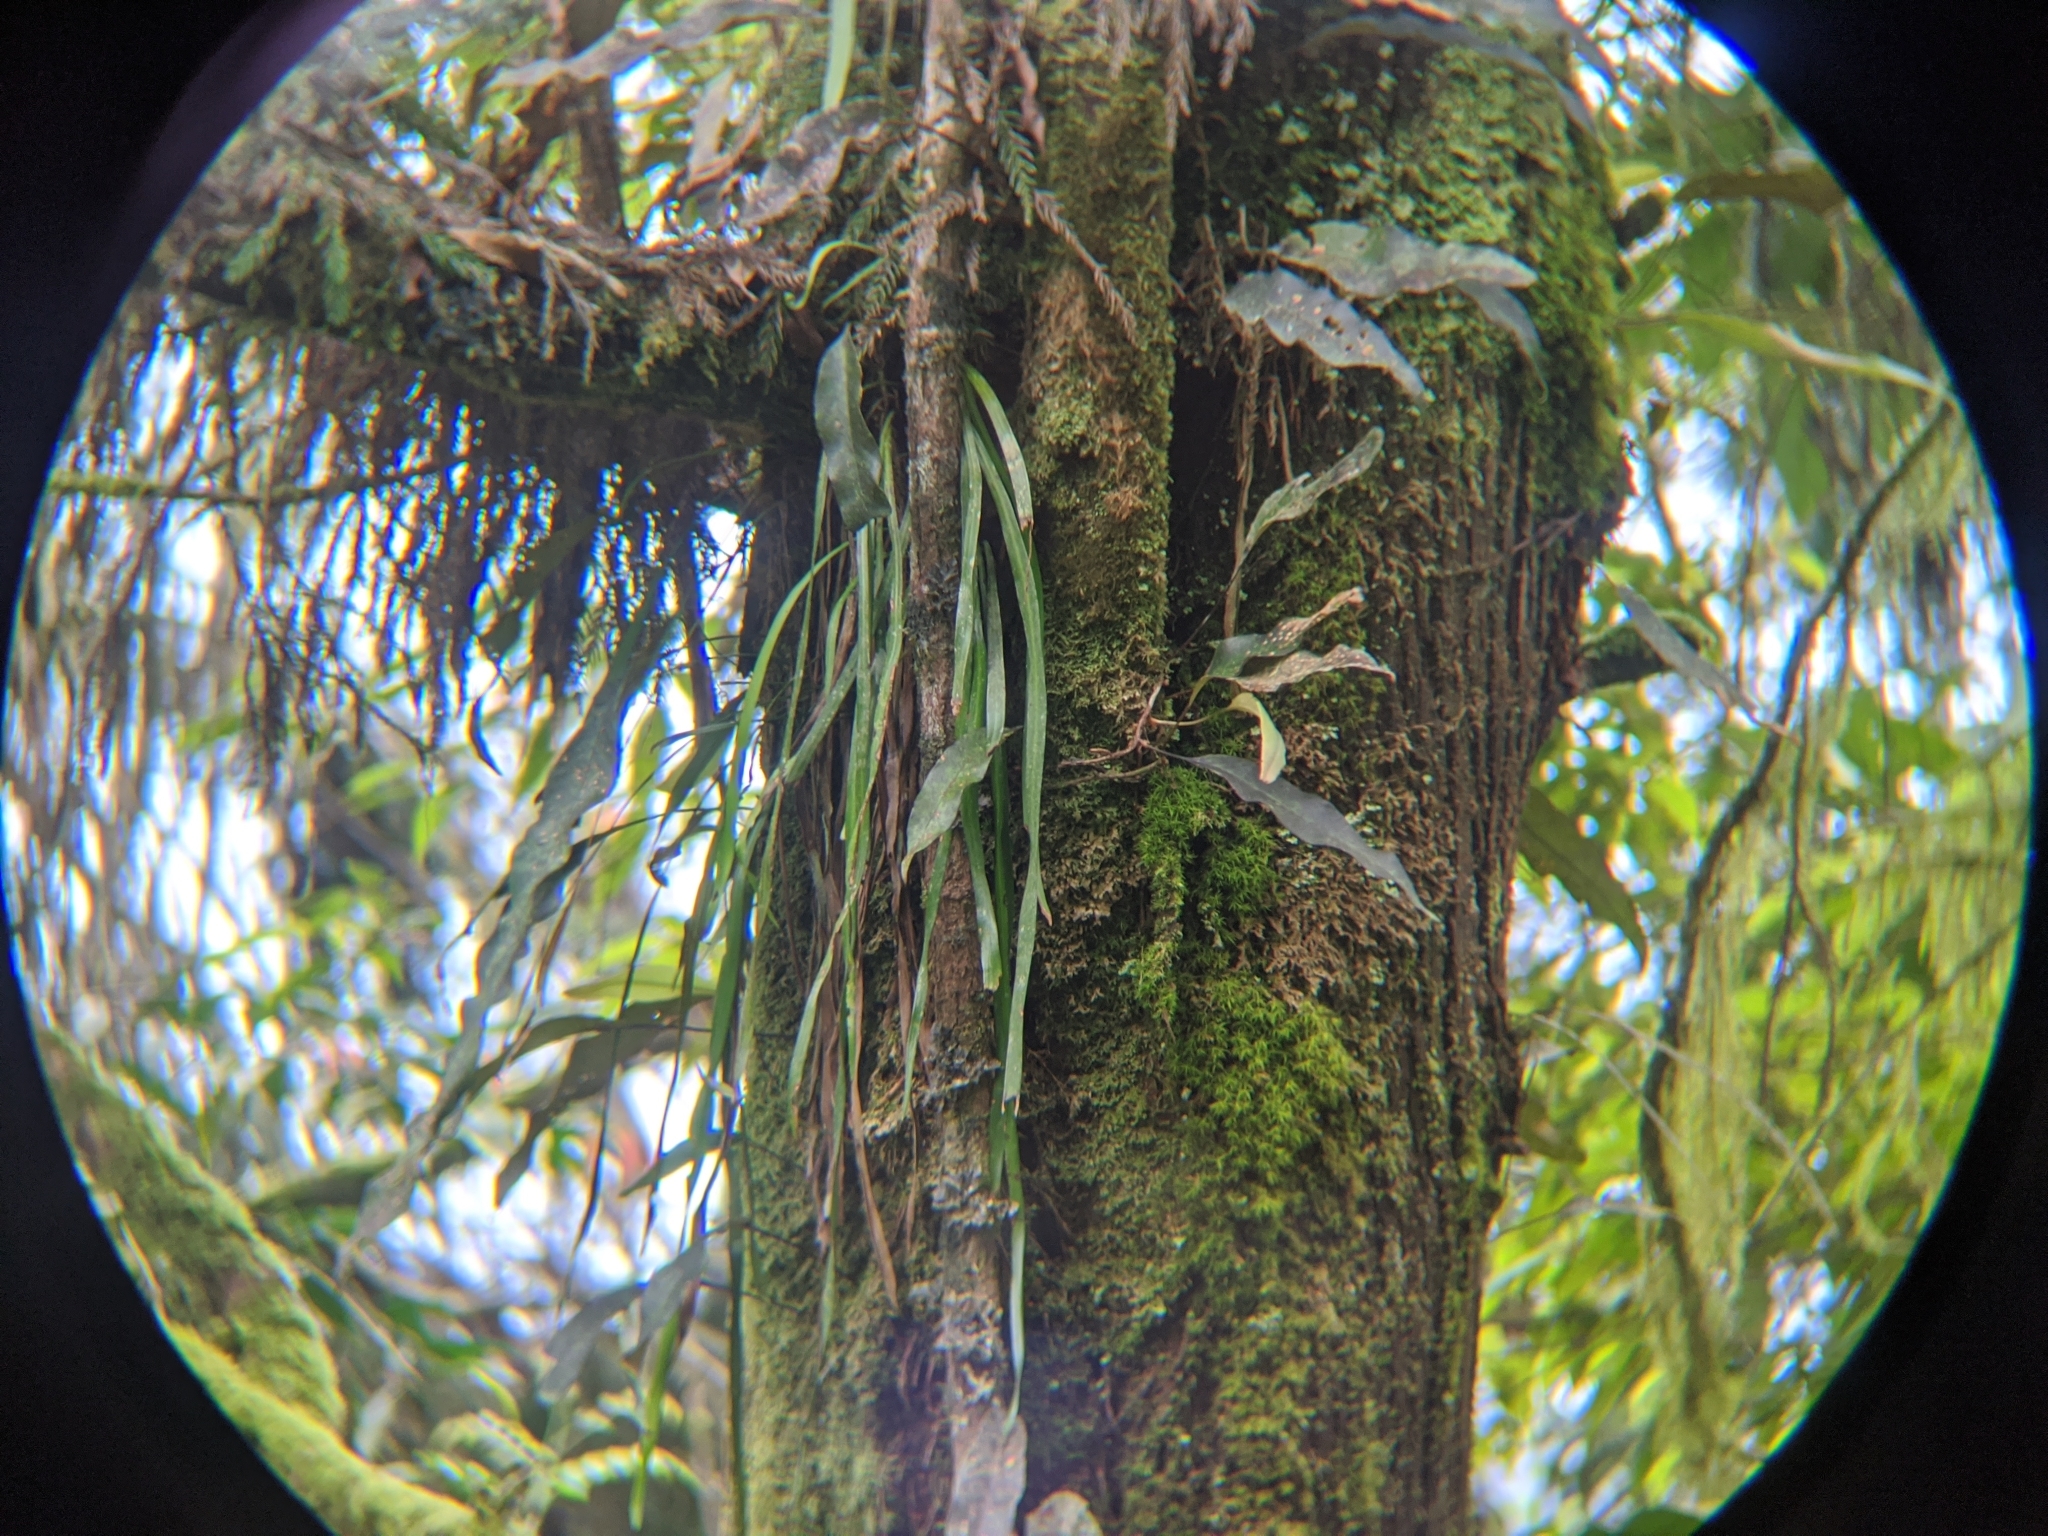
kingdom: Plantae
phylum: Tracheophyta
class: Polypodiopsida
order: Polypodiales
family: Pteridaceae
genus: Haplopteris
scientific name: Haplopteris elongata
